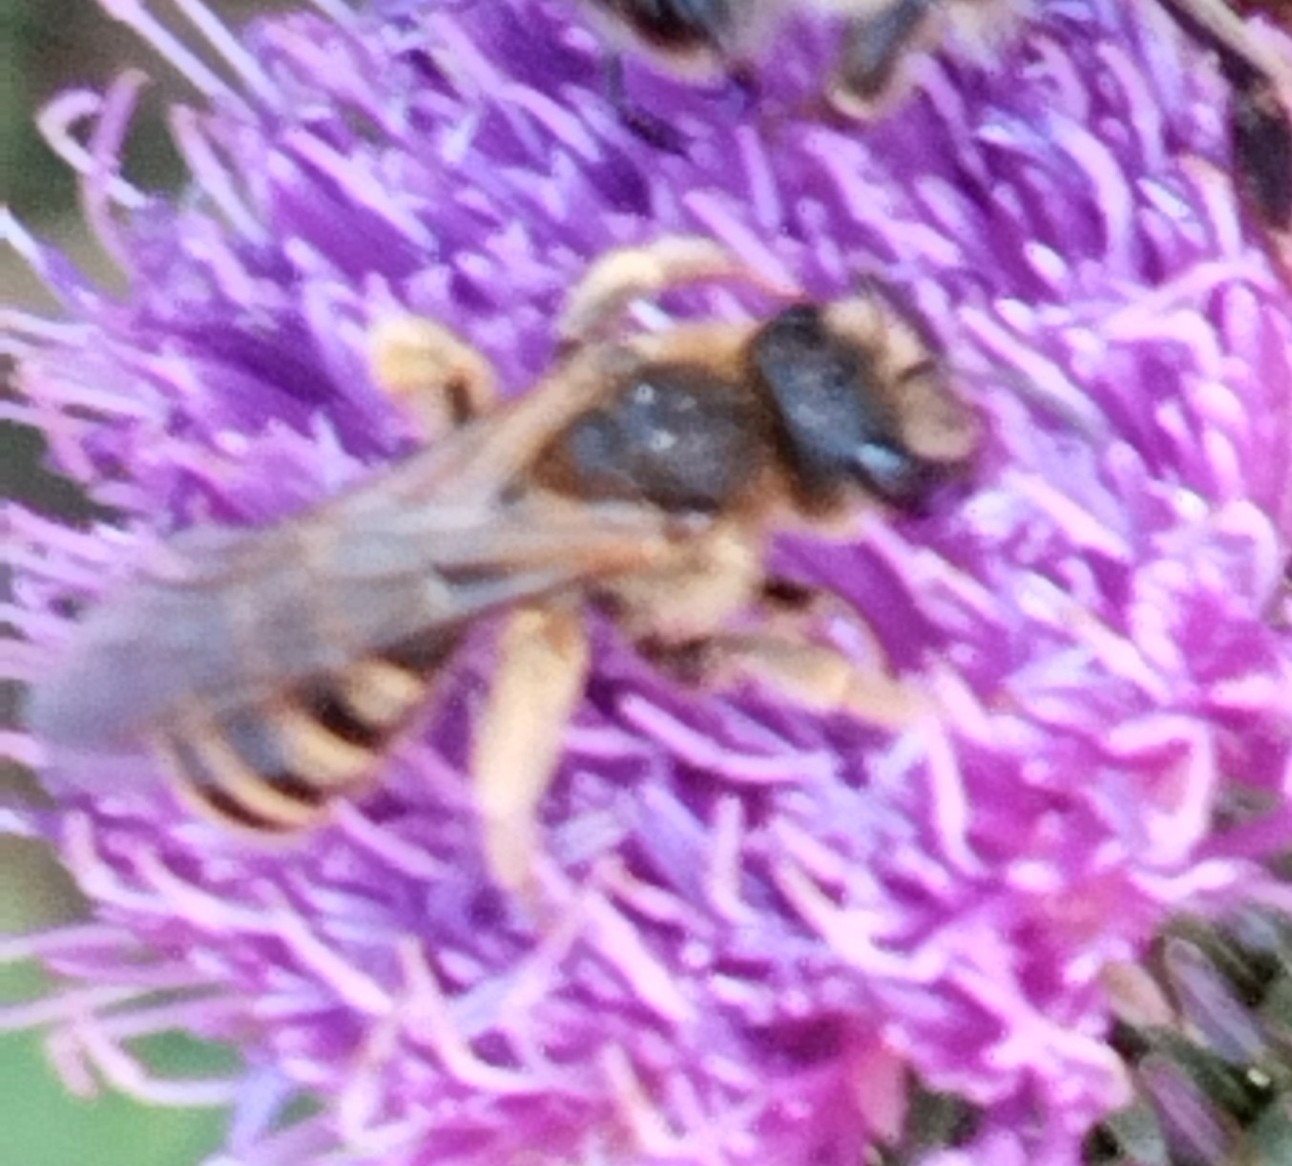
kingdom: Animalia
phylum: Arthropoda
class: Insecta
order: Hymenoptera
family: Halictidae
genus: Halictus
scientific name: Halictus scabiosae
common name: Great banded furrow bee
